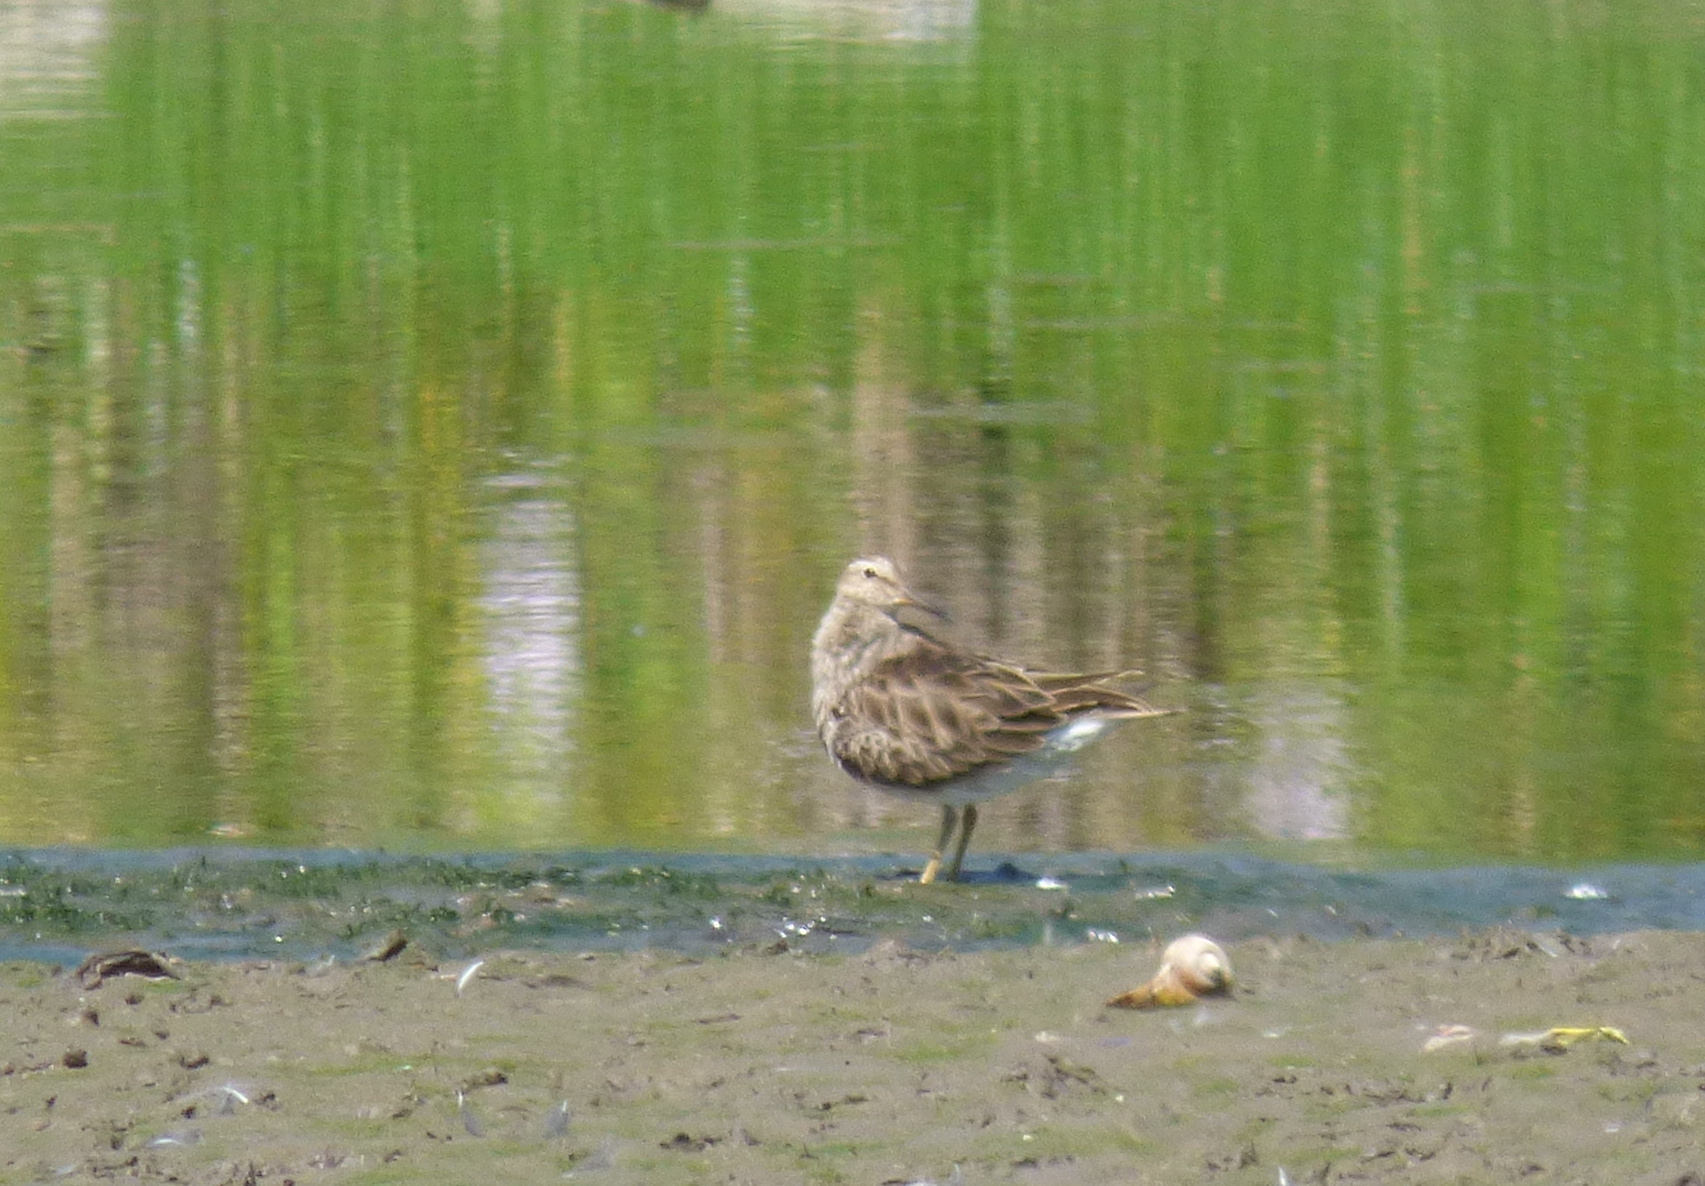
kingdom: Animalia
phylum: Chordata
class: Aves
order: Charadriiformes
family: Scolopacidae
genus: Calidris
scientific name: Calidris melanotos
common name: Pectoral sandpiper
